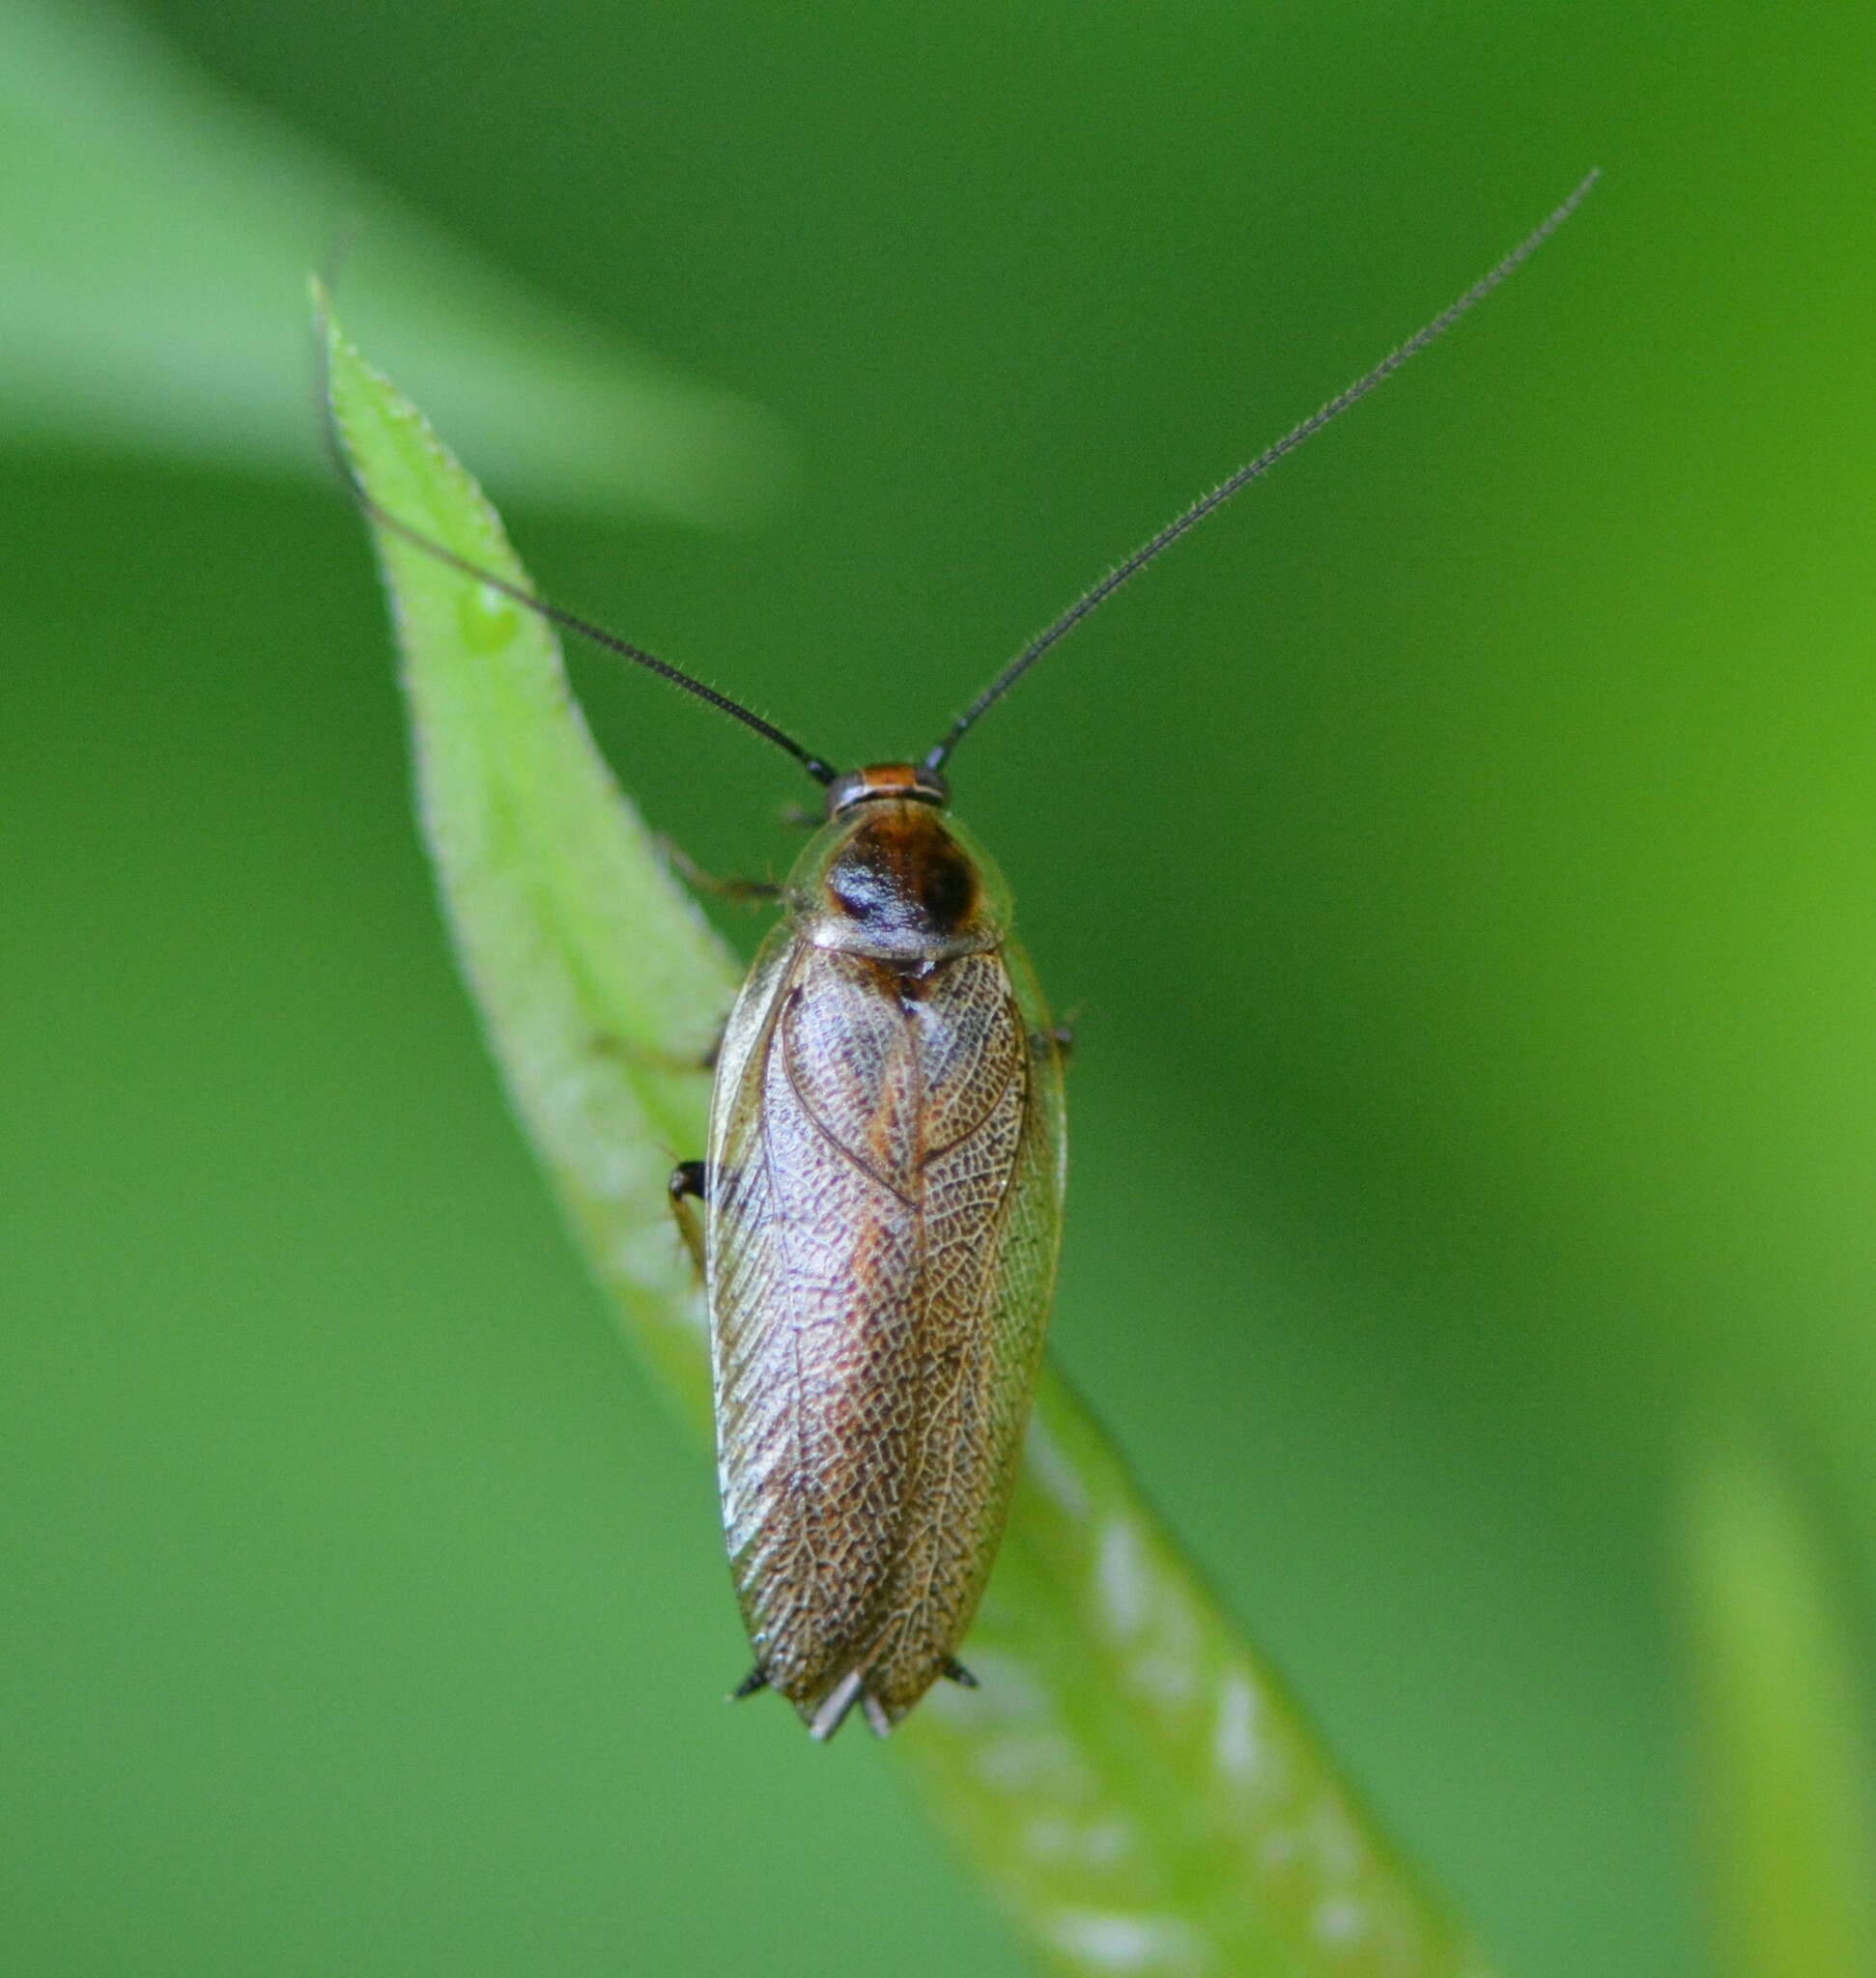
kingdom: Animalia
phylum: Arthropoda
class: Insecta
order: Blattodea
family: Ectobiidae
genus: Ectobius
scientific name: Ectobius lapponicus
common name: Dusky cockroach
